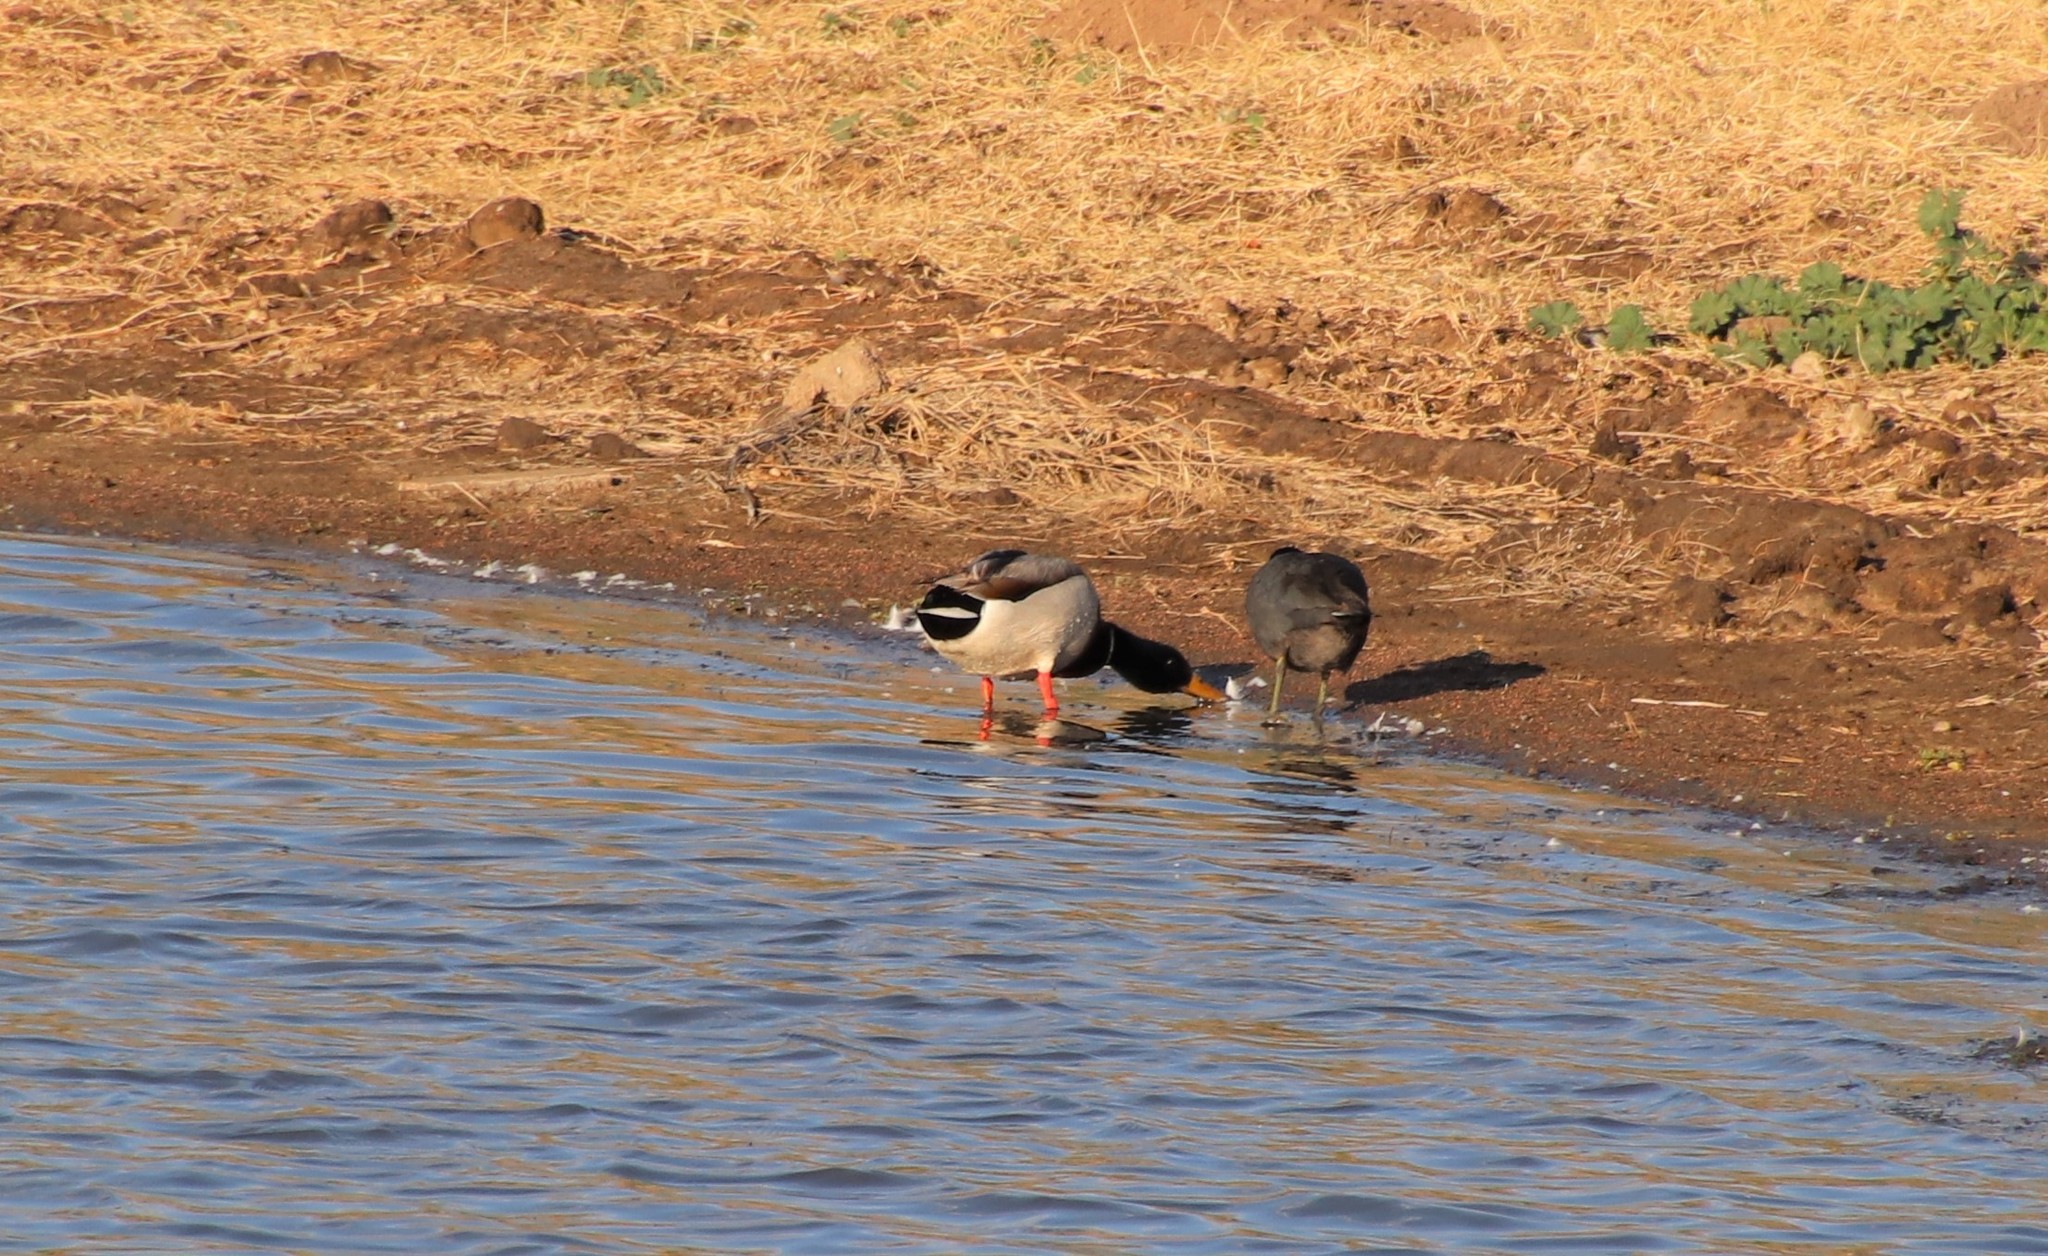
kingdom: Animalia
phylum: Chordata
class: Aves
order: Anseriformes
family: Anatidae
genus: Anas
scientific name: Anas platyrhynchos
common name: Mallard
